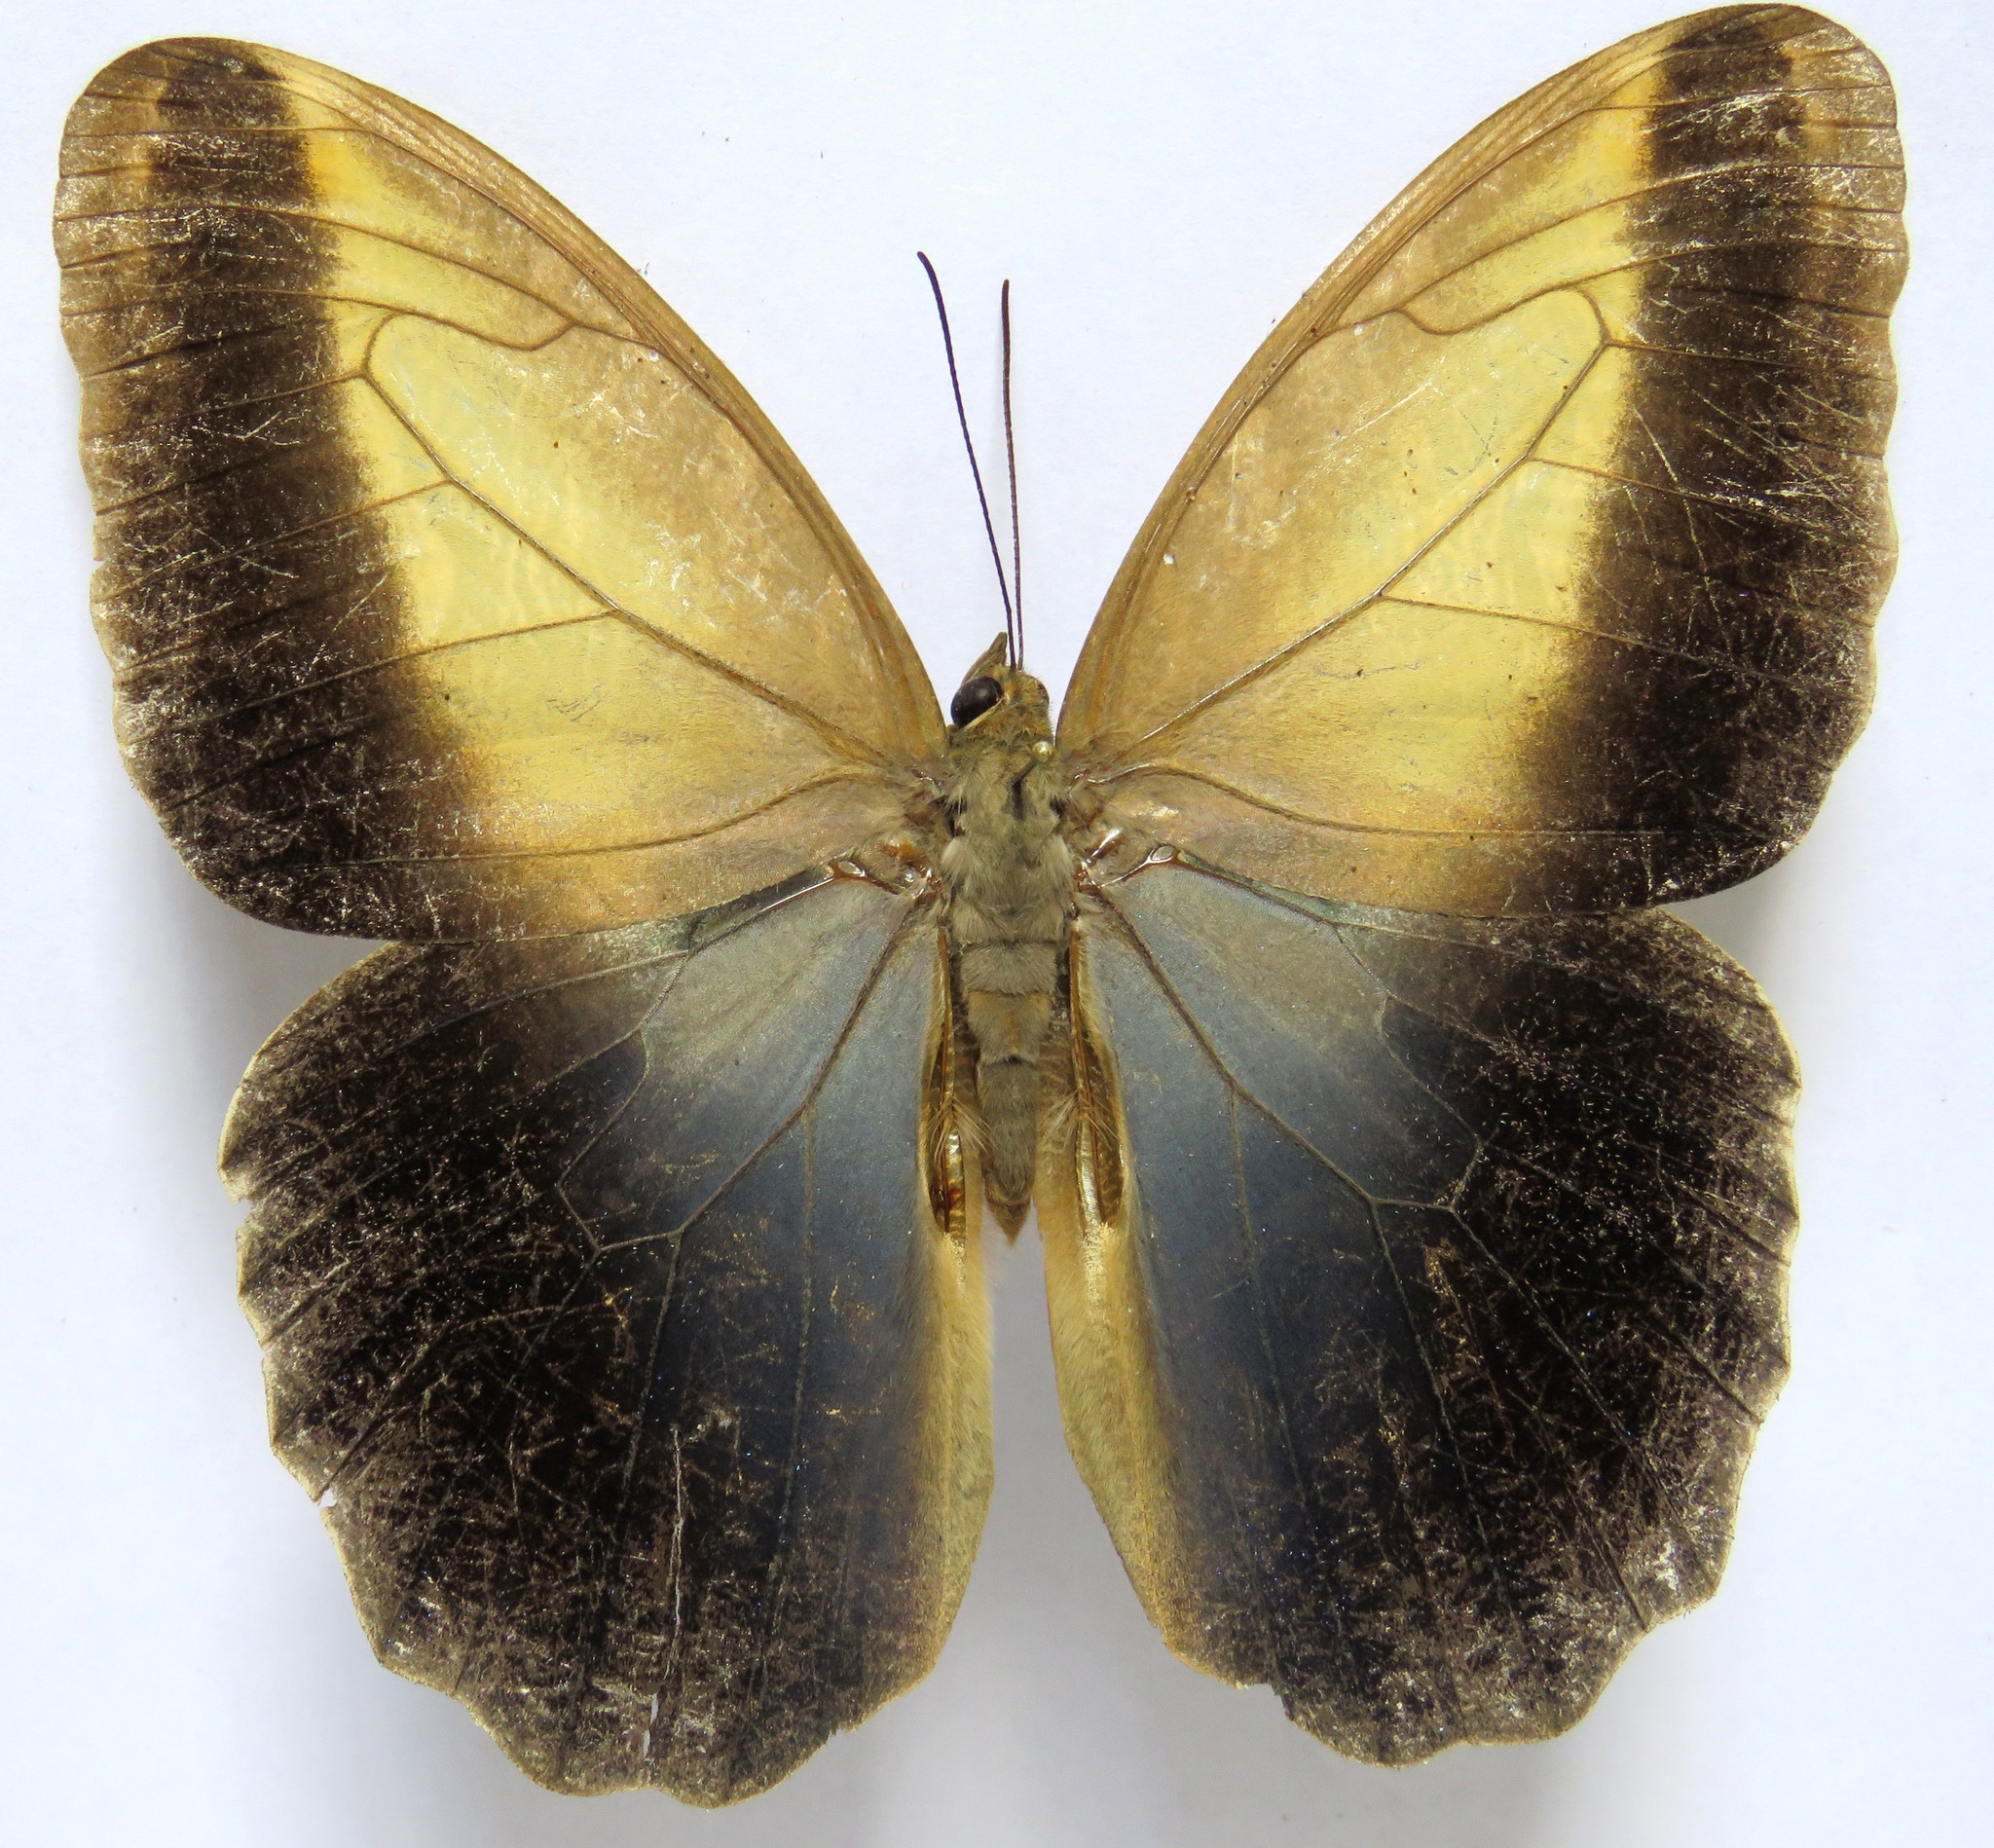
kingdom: Animalia
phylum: Arthropoda
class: Insecta
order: Lepidoptera
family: Nymphalidae
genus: Caligo
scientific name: Caligo telamonius
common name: Pale owl-butterfly
